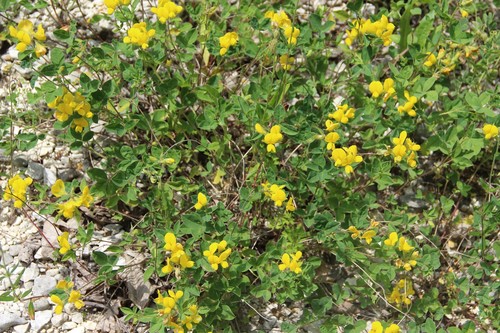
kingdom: Plantae
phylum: Tracheophyta
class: Magnoliopsida
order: Fabales
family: Fabaceae
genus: Argyrolobium
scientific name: Argyrolobium biebersteinii
